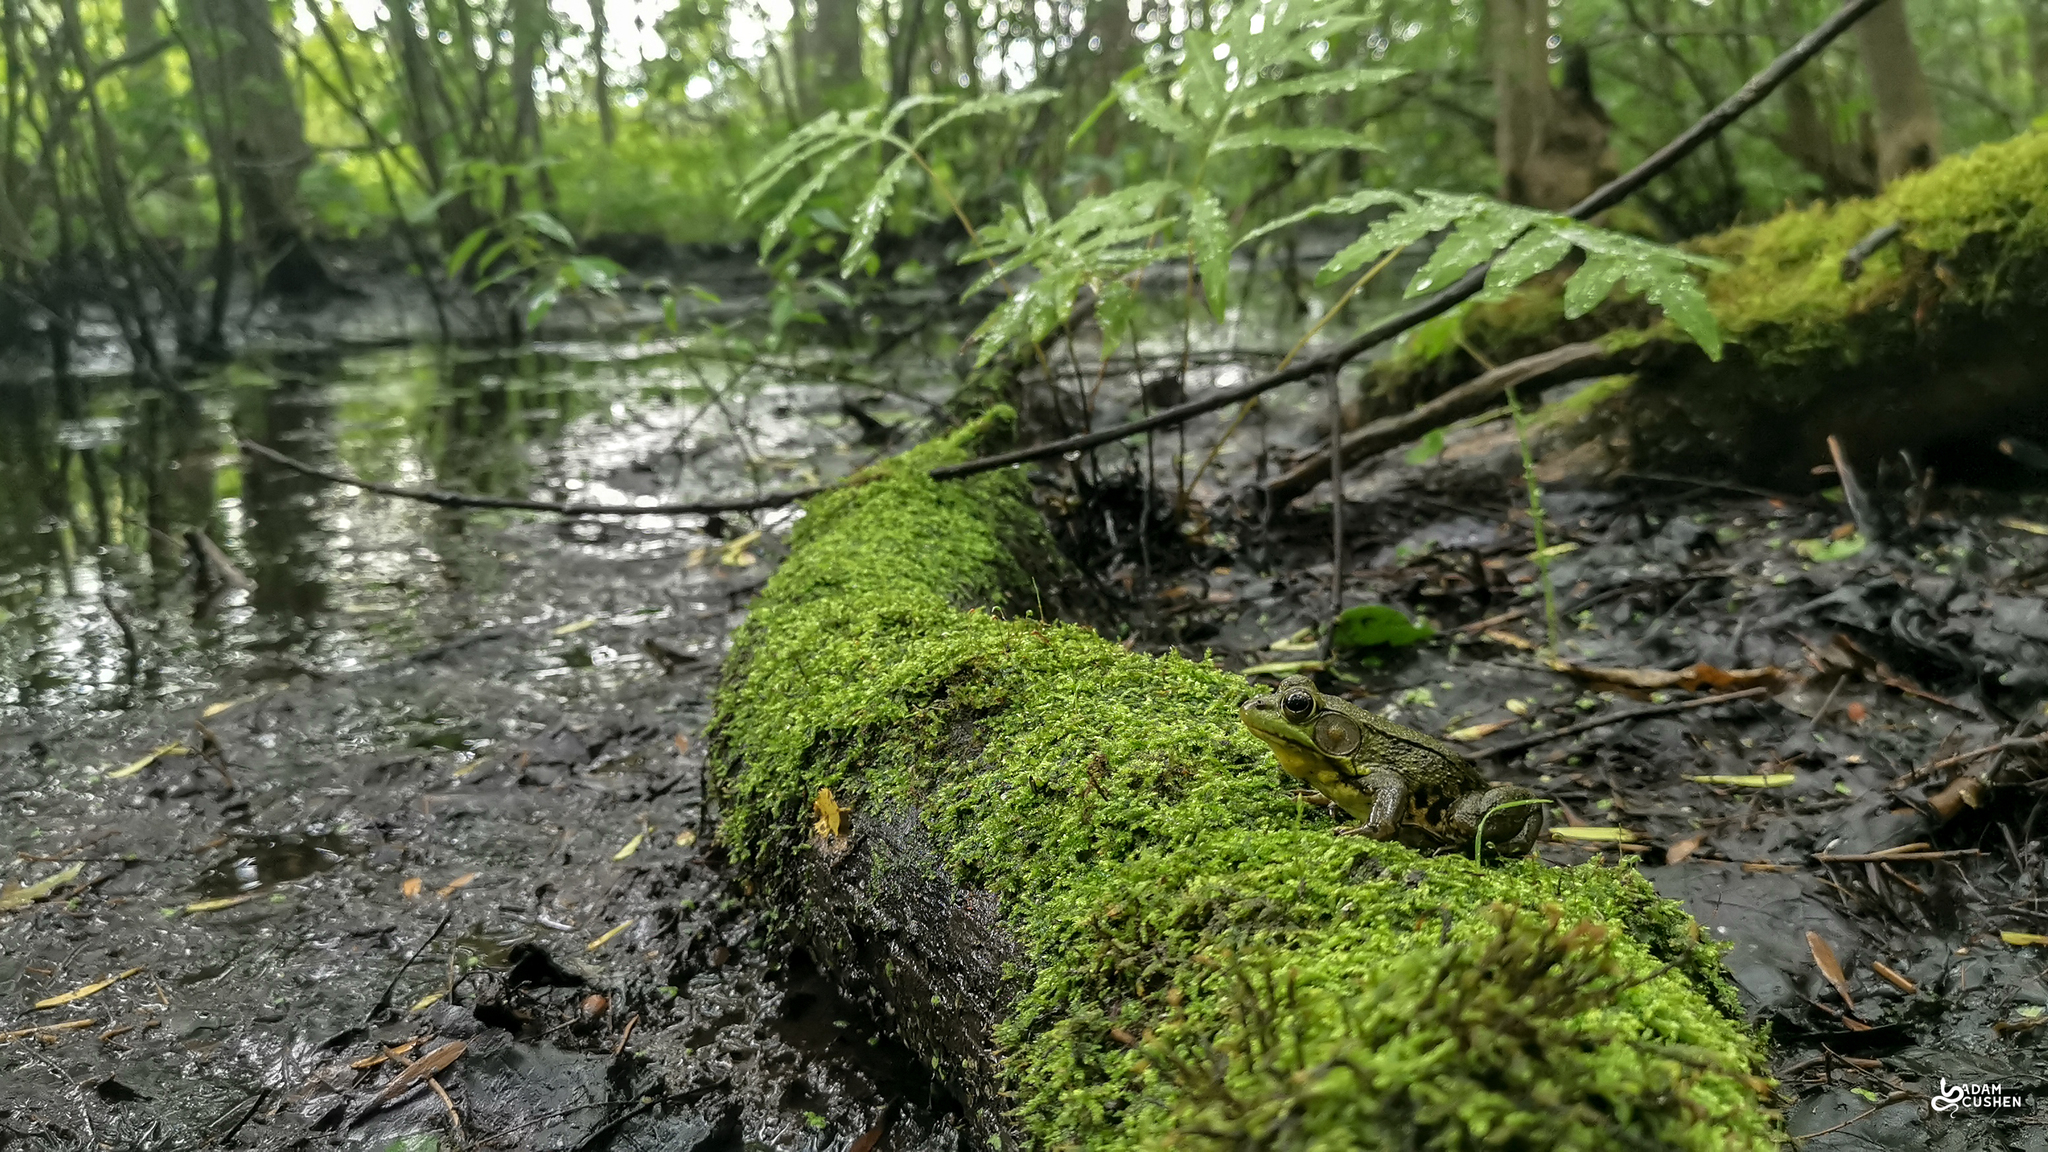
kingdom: Animalia
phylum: Chordata
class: Amphibia
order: Anura
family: Ranidae
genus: Lithobates
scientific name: Lithobates clamitans
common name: Green frog
